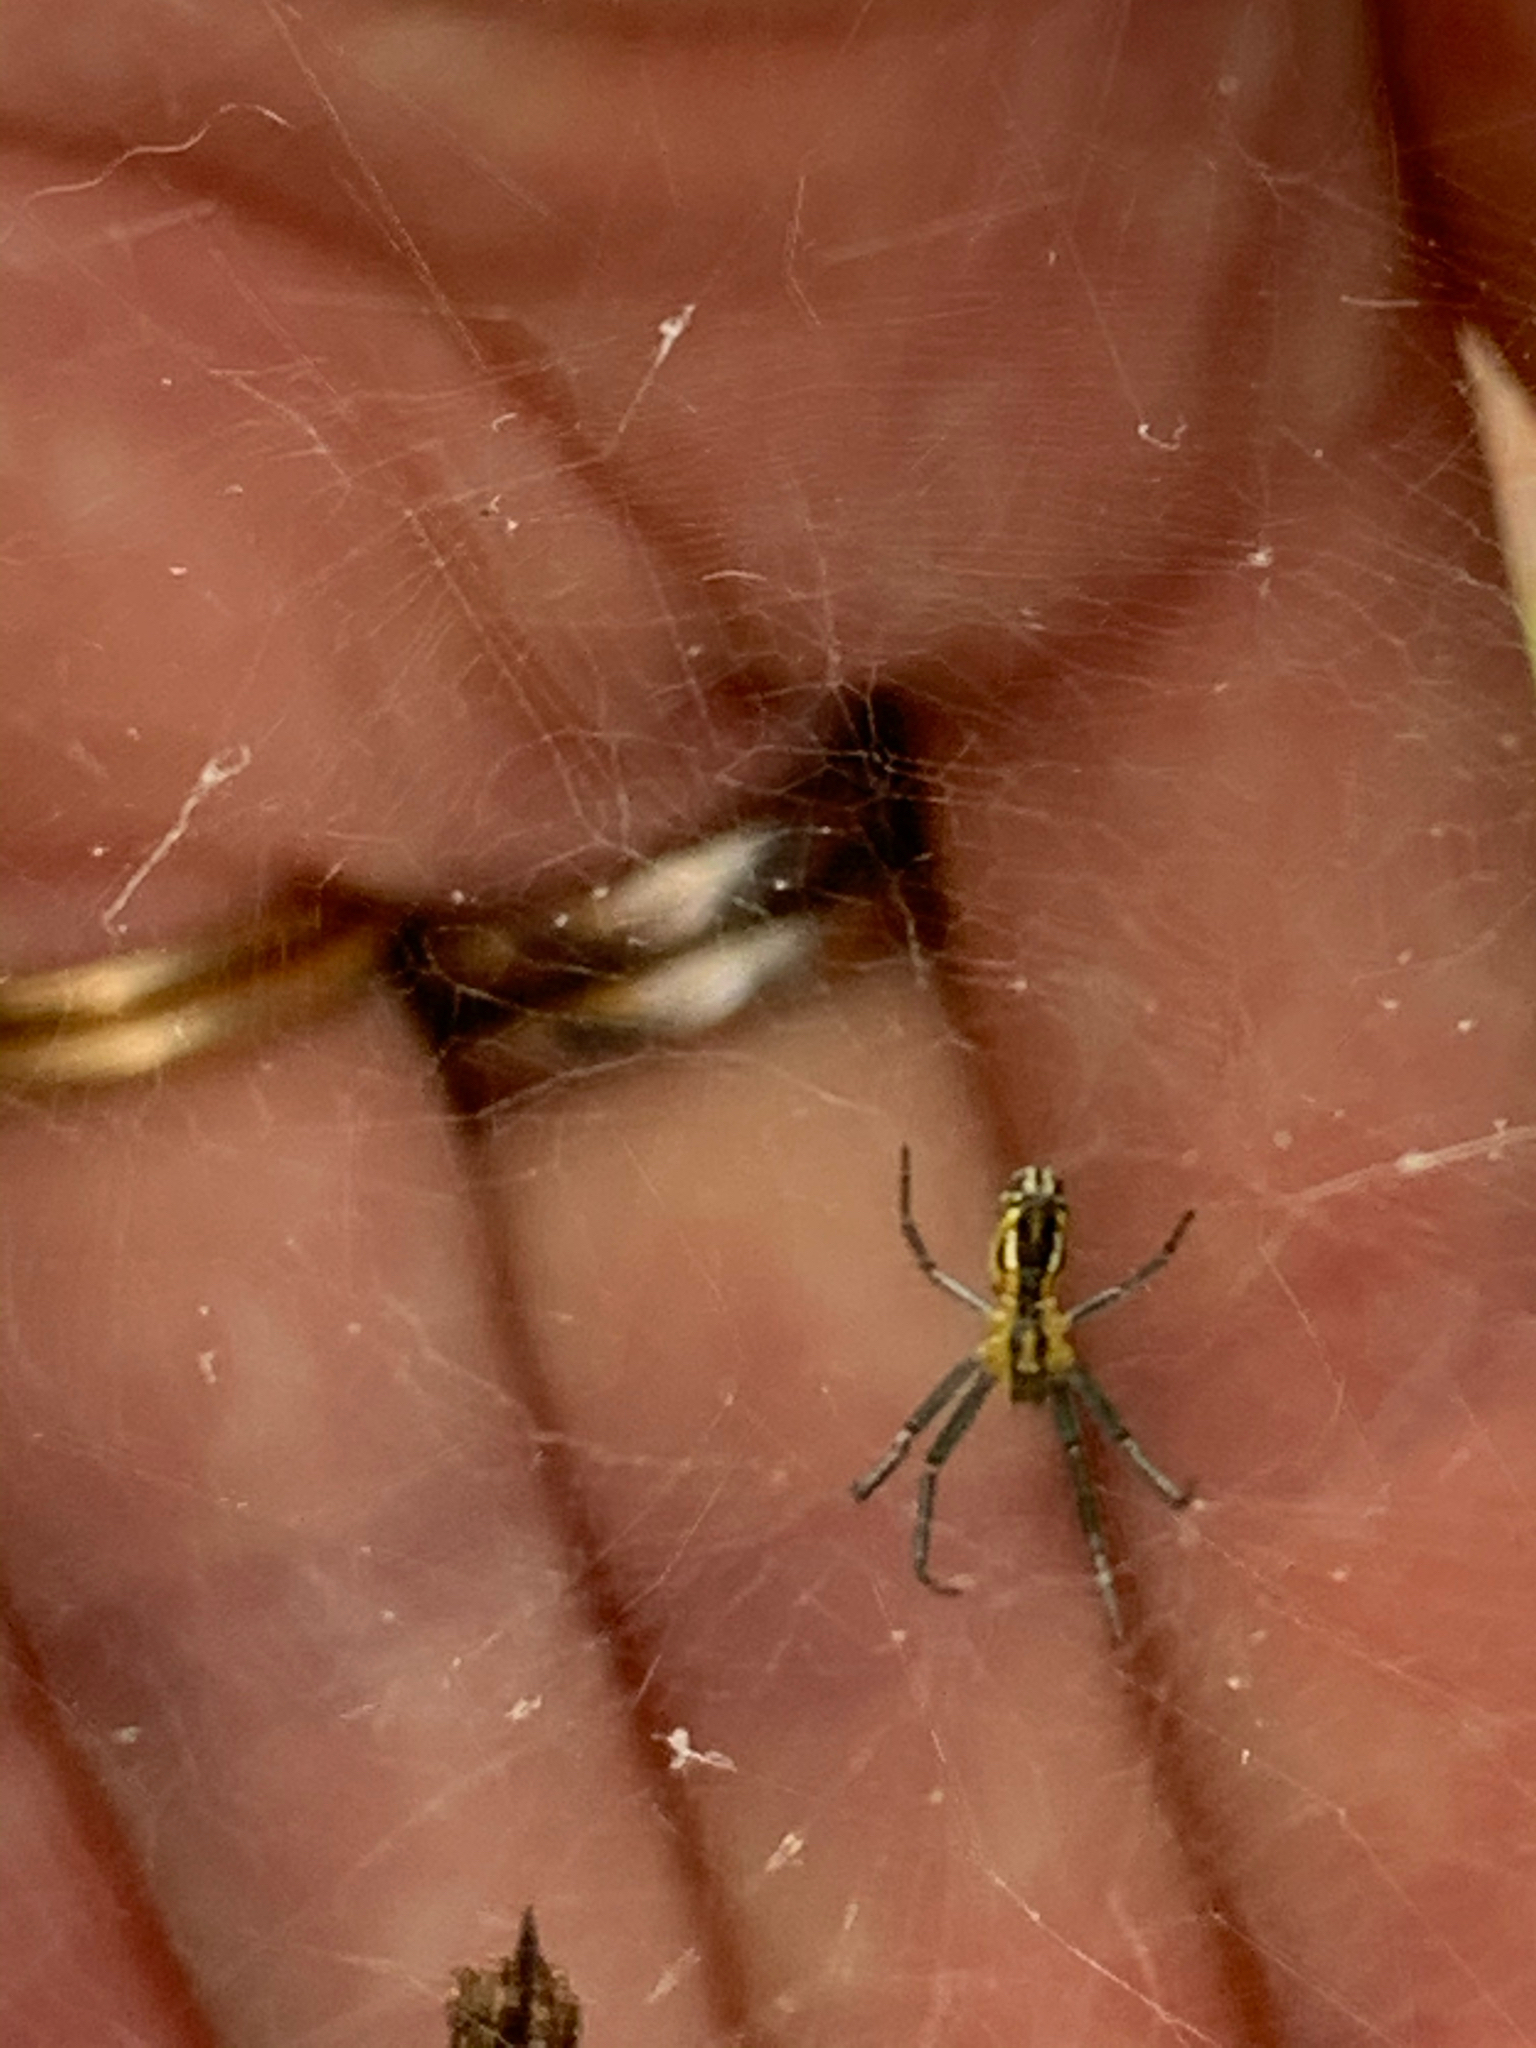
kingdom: Animalia
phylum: Arthropoda
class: Arachnida
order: Araneae
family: Araneidae
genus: Mecynogea
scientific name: Mecynogea lemniscata
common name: Orb weavers
